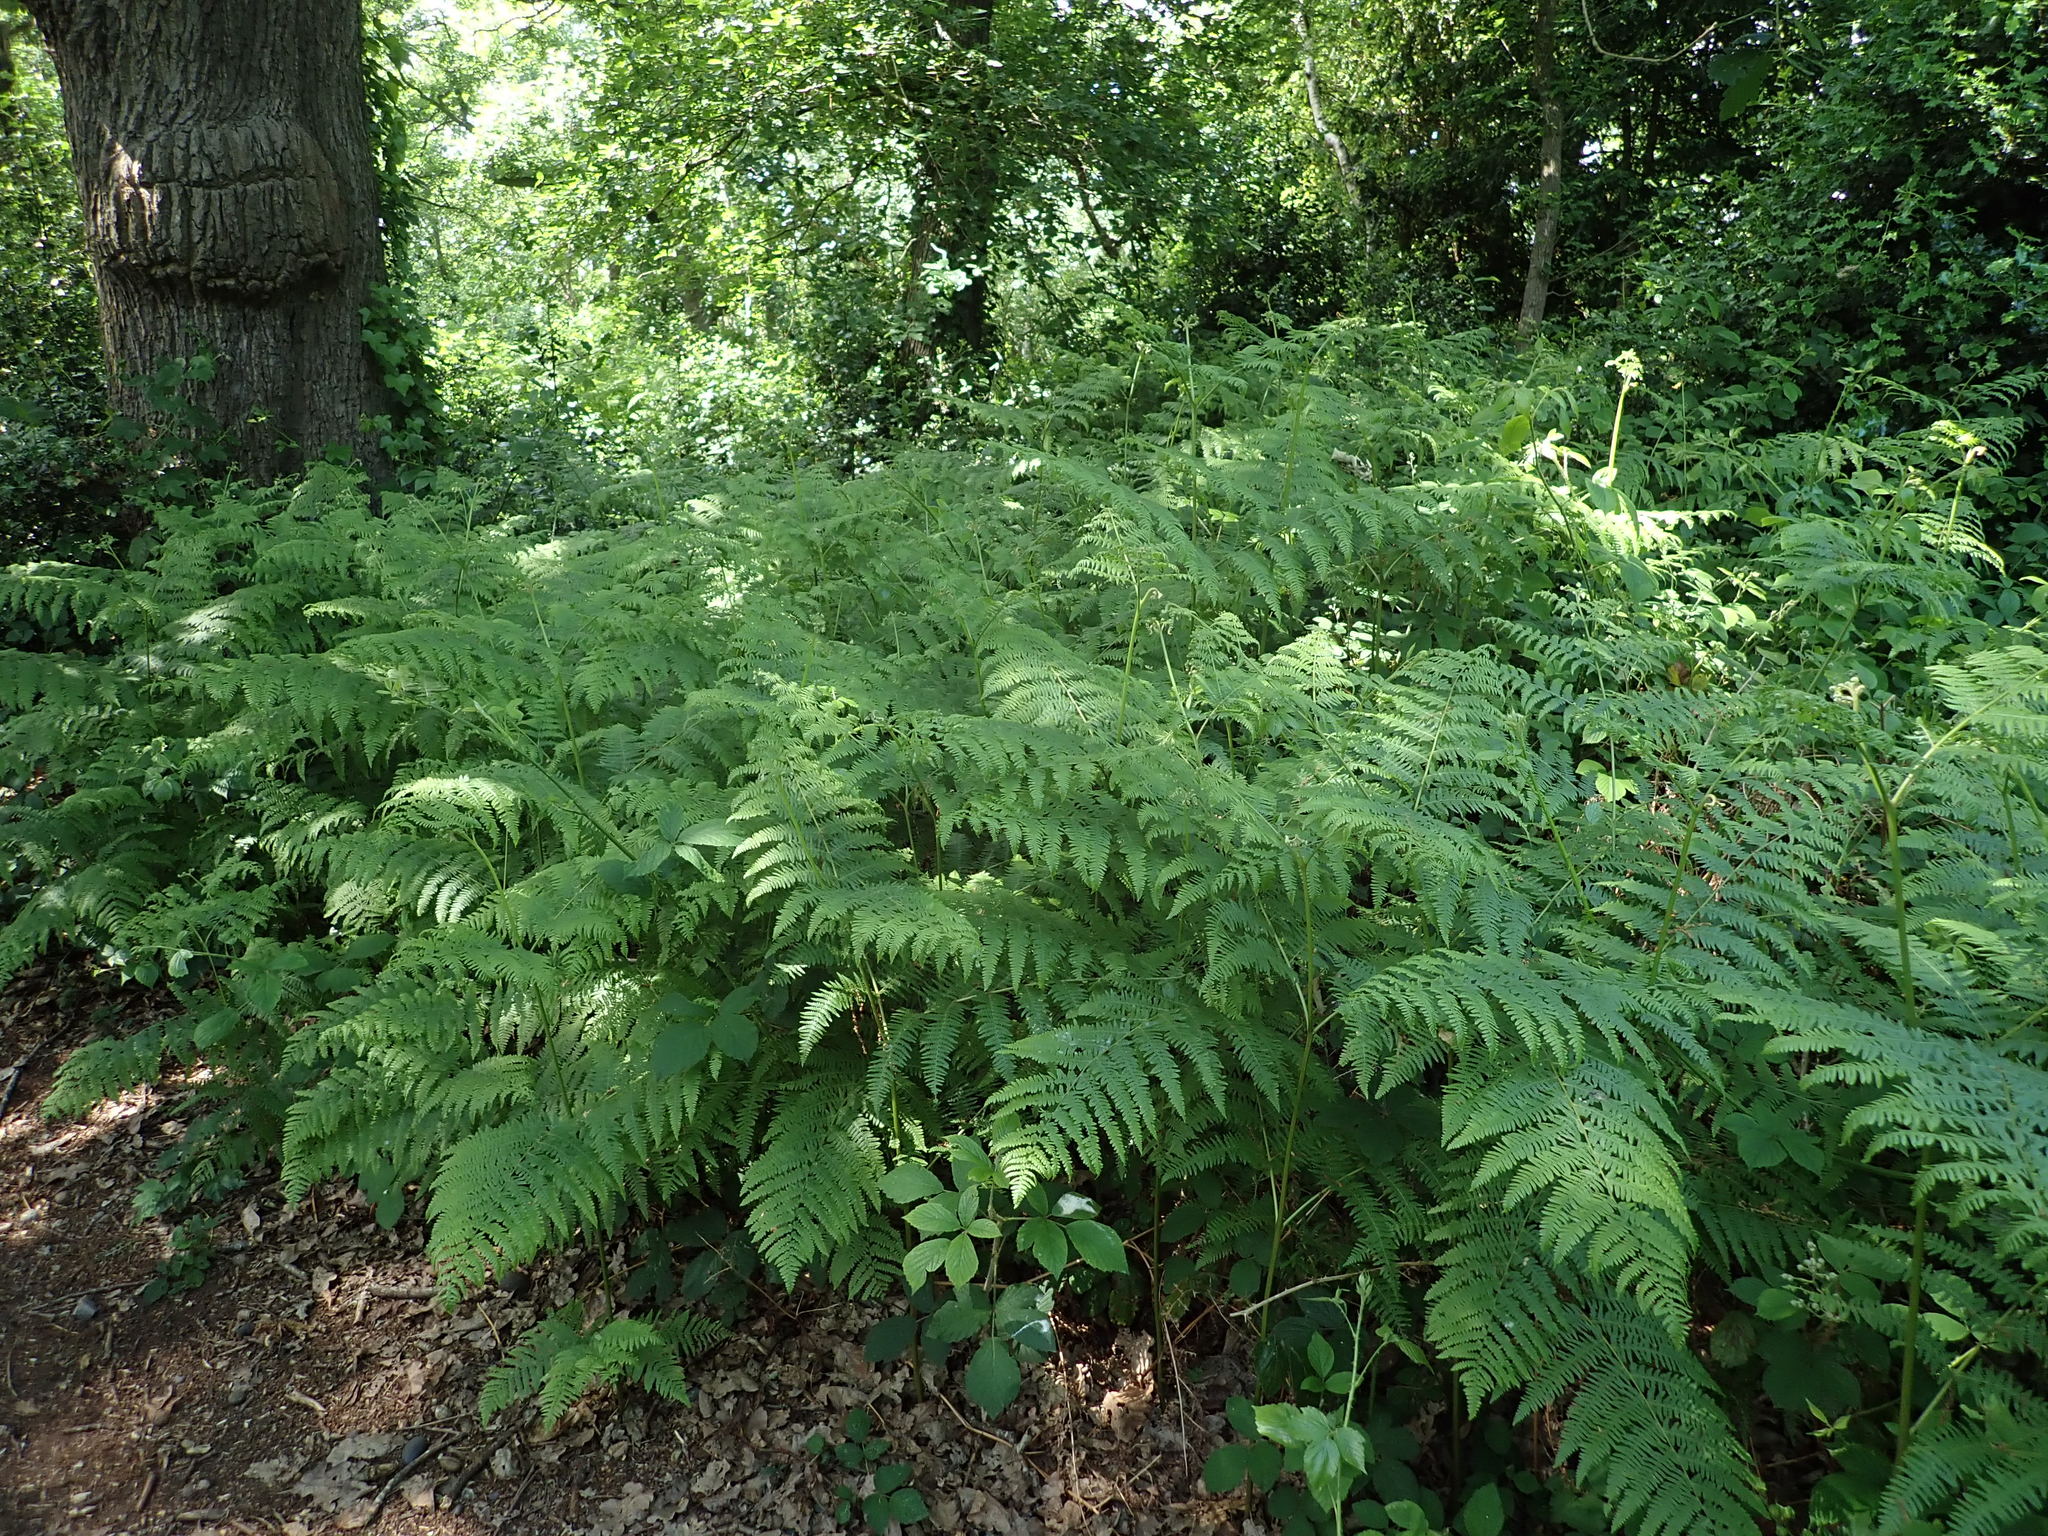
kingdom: Plantae
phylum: Tracheophyta
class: Polypodiopsida
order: Polypodiales
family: Dennstaedtiaceae
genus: Pteridium
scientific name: Pteridium aquilinum
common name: Bracken
